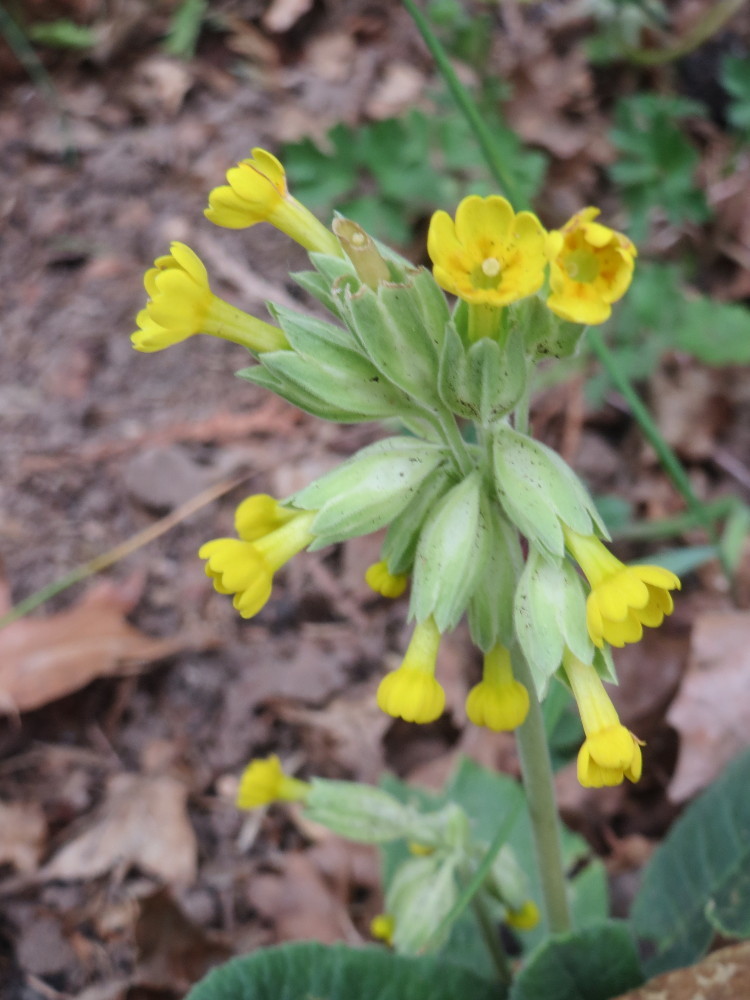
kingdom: Plantae
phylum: Tracheophyta
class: Magnoliopsida
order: Ericales
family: Primulaceae
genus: Primula
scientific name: Primula veris
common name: Cowslip
